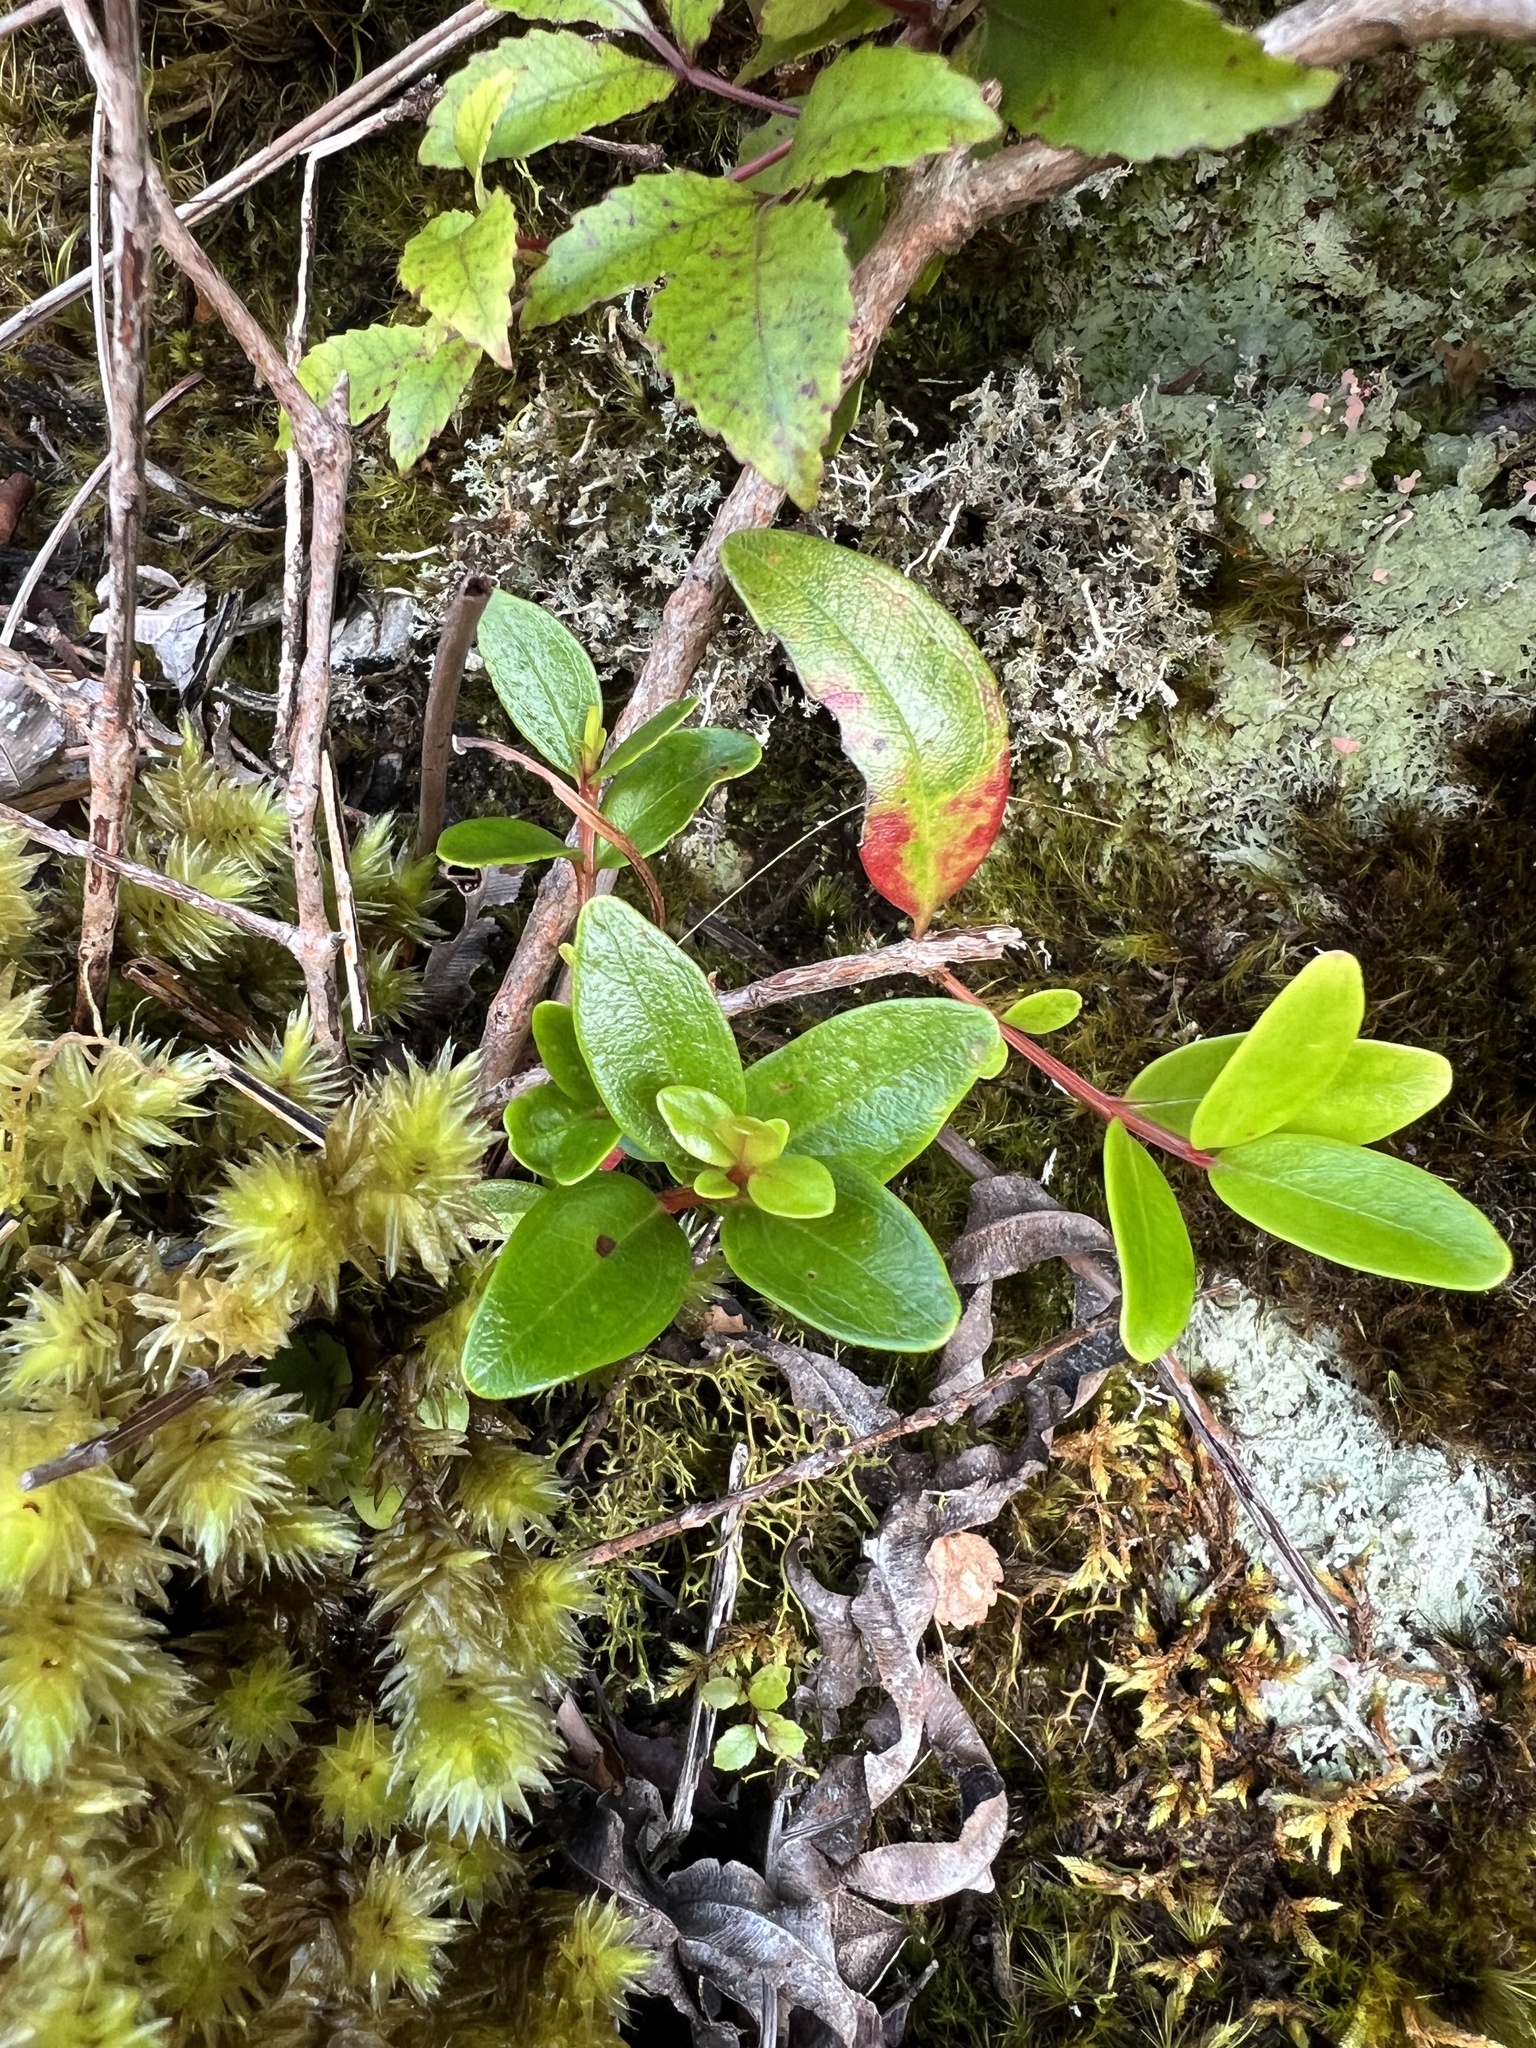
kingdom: Plantae
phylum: Tracheophyta
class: Magnoliopsida
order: Myrtales
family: Myrtaceae
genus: Metrosideros
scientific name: Metrosideros robusta
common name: Northern rata
